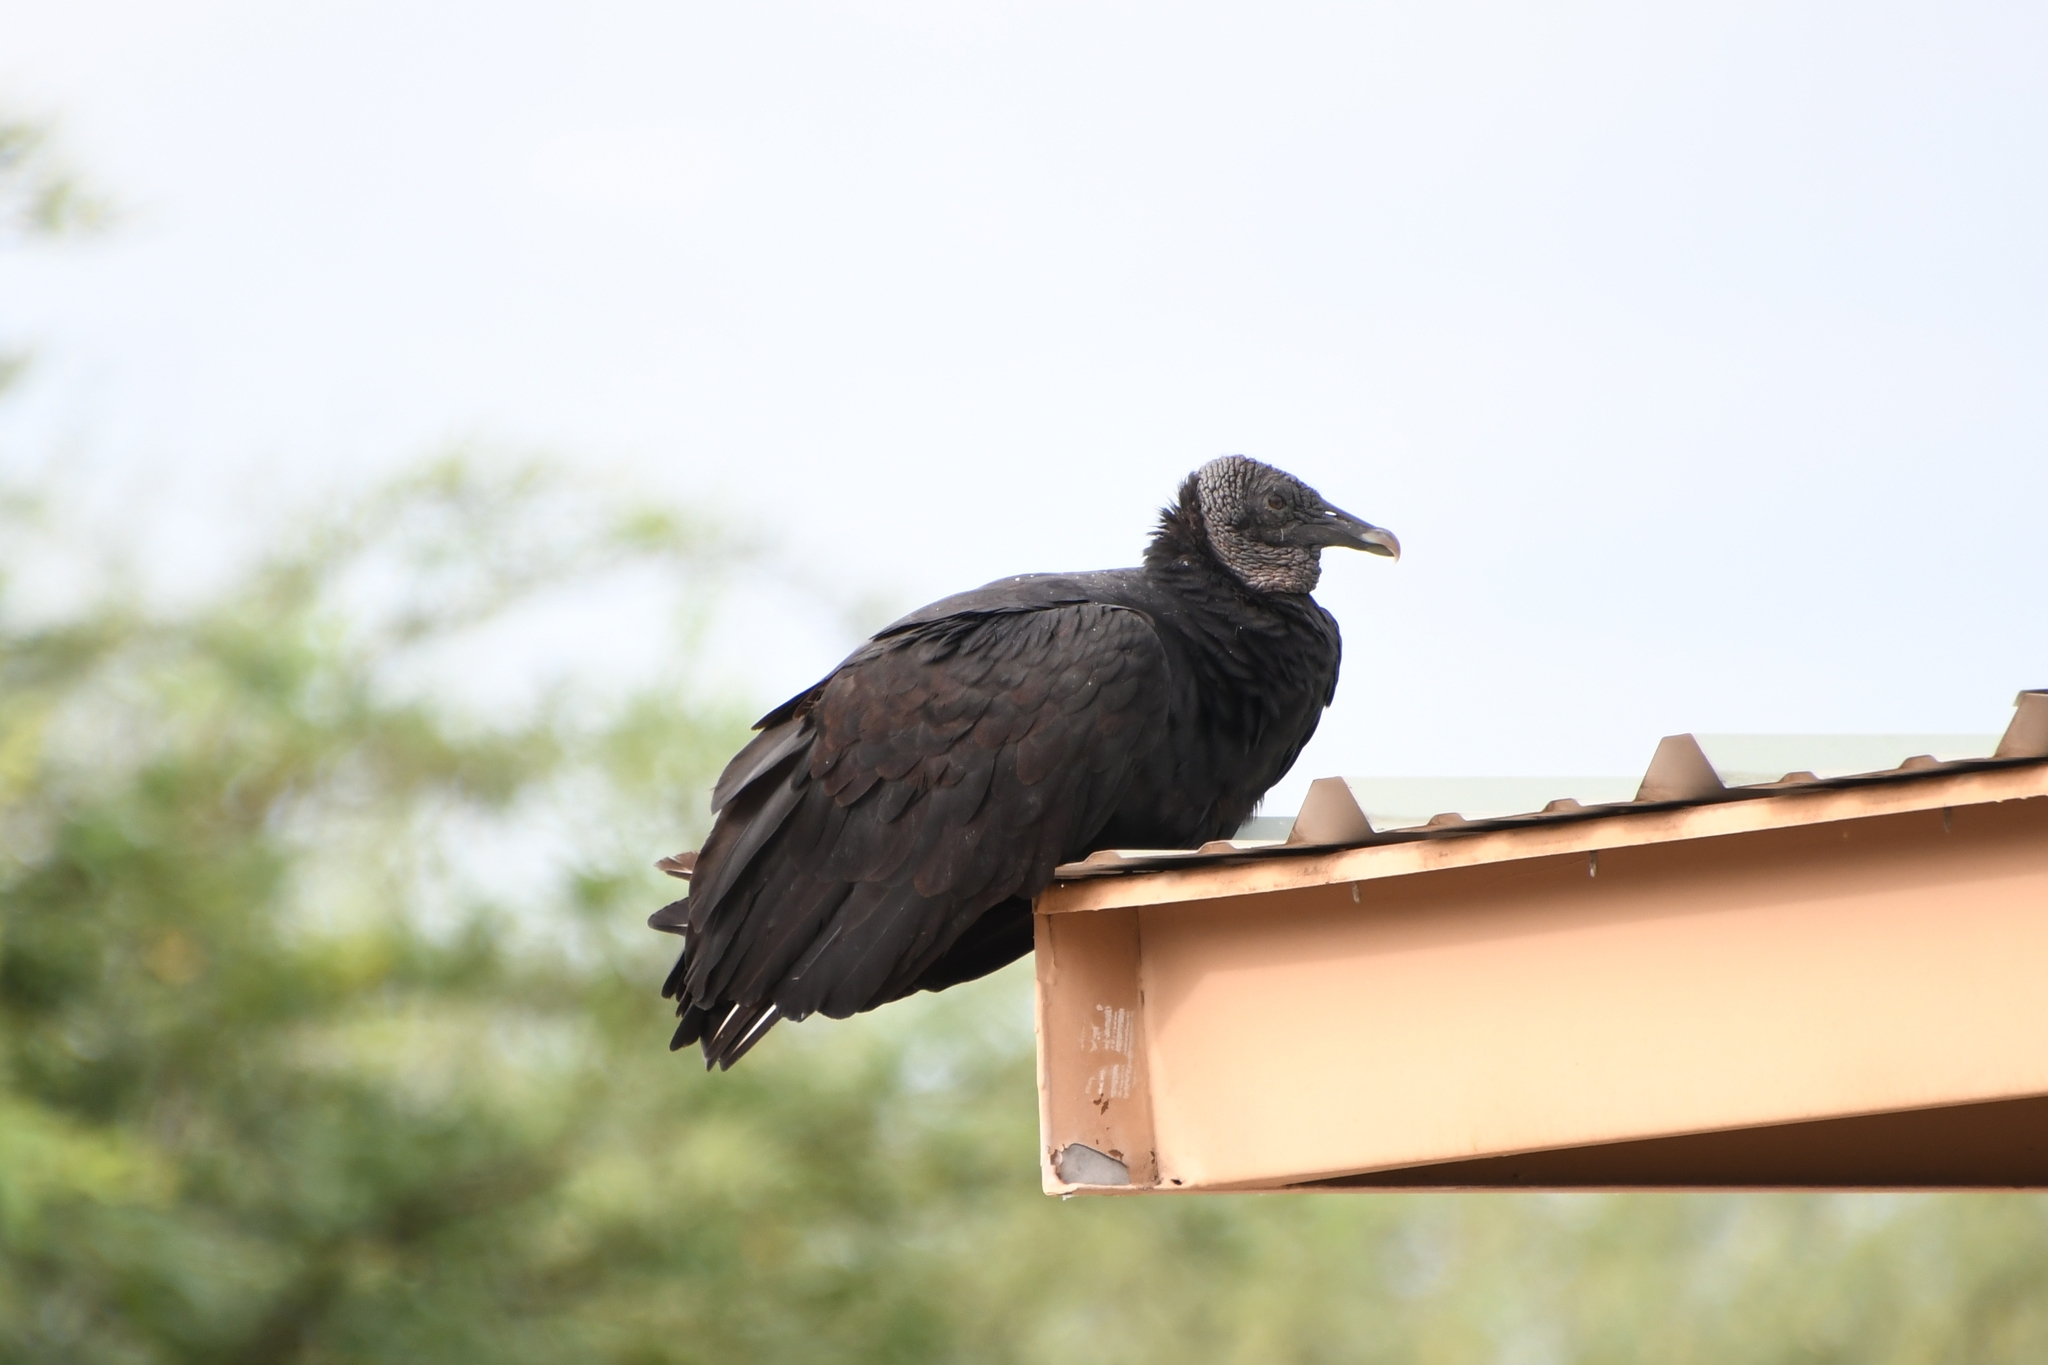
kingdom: Animalia
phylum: Chordata
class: Aves
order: Accipitriformes
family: Cathartidae
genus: Coragyps
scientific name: Coragyps atratus
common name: Black vulture
